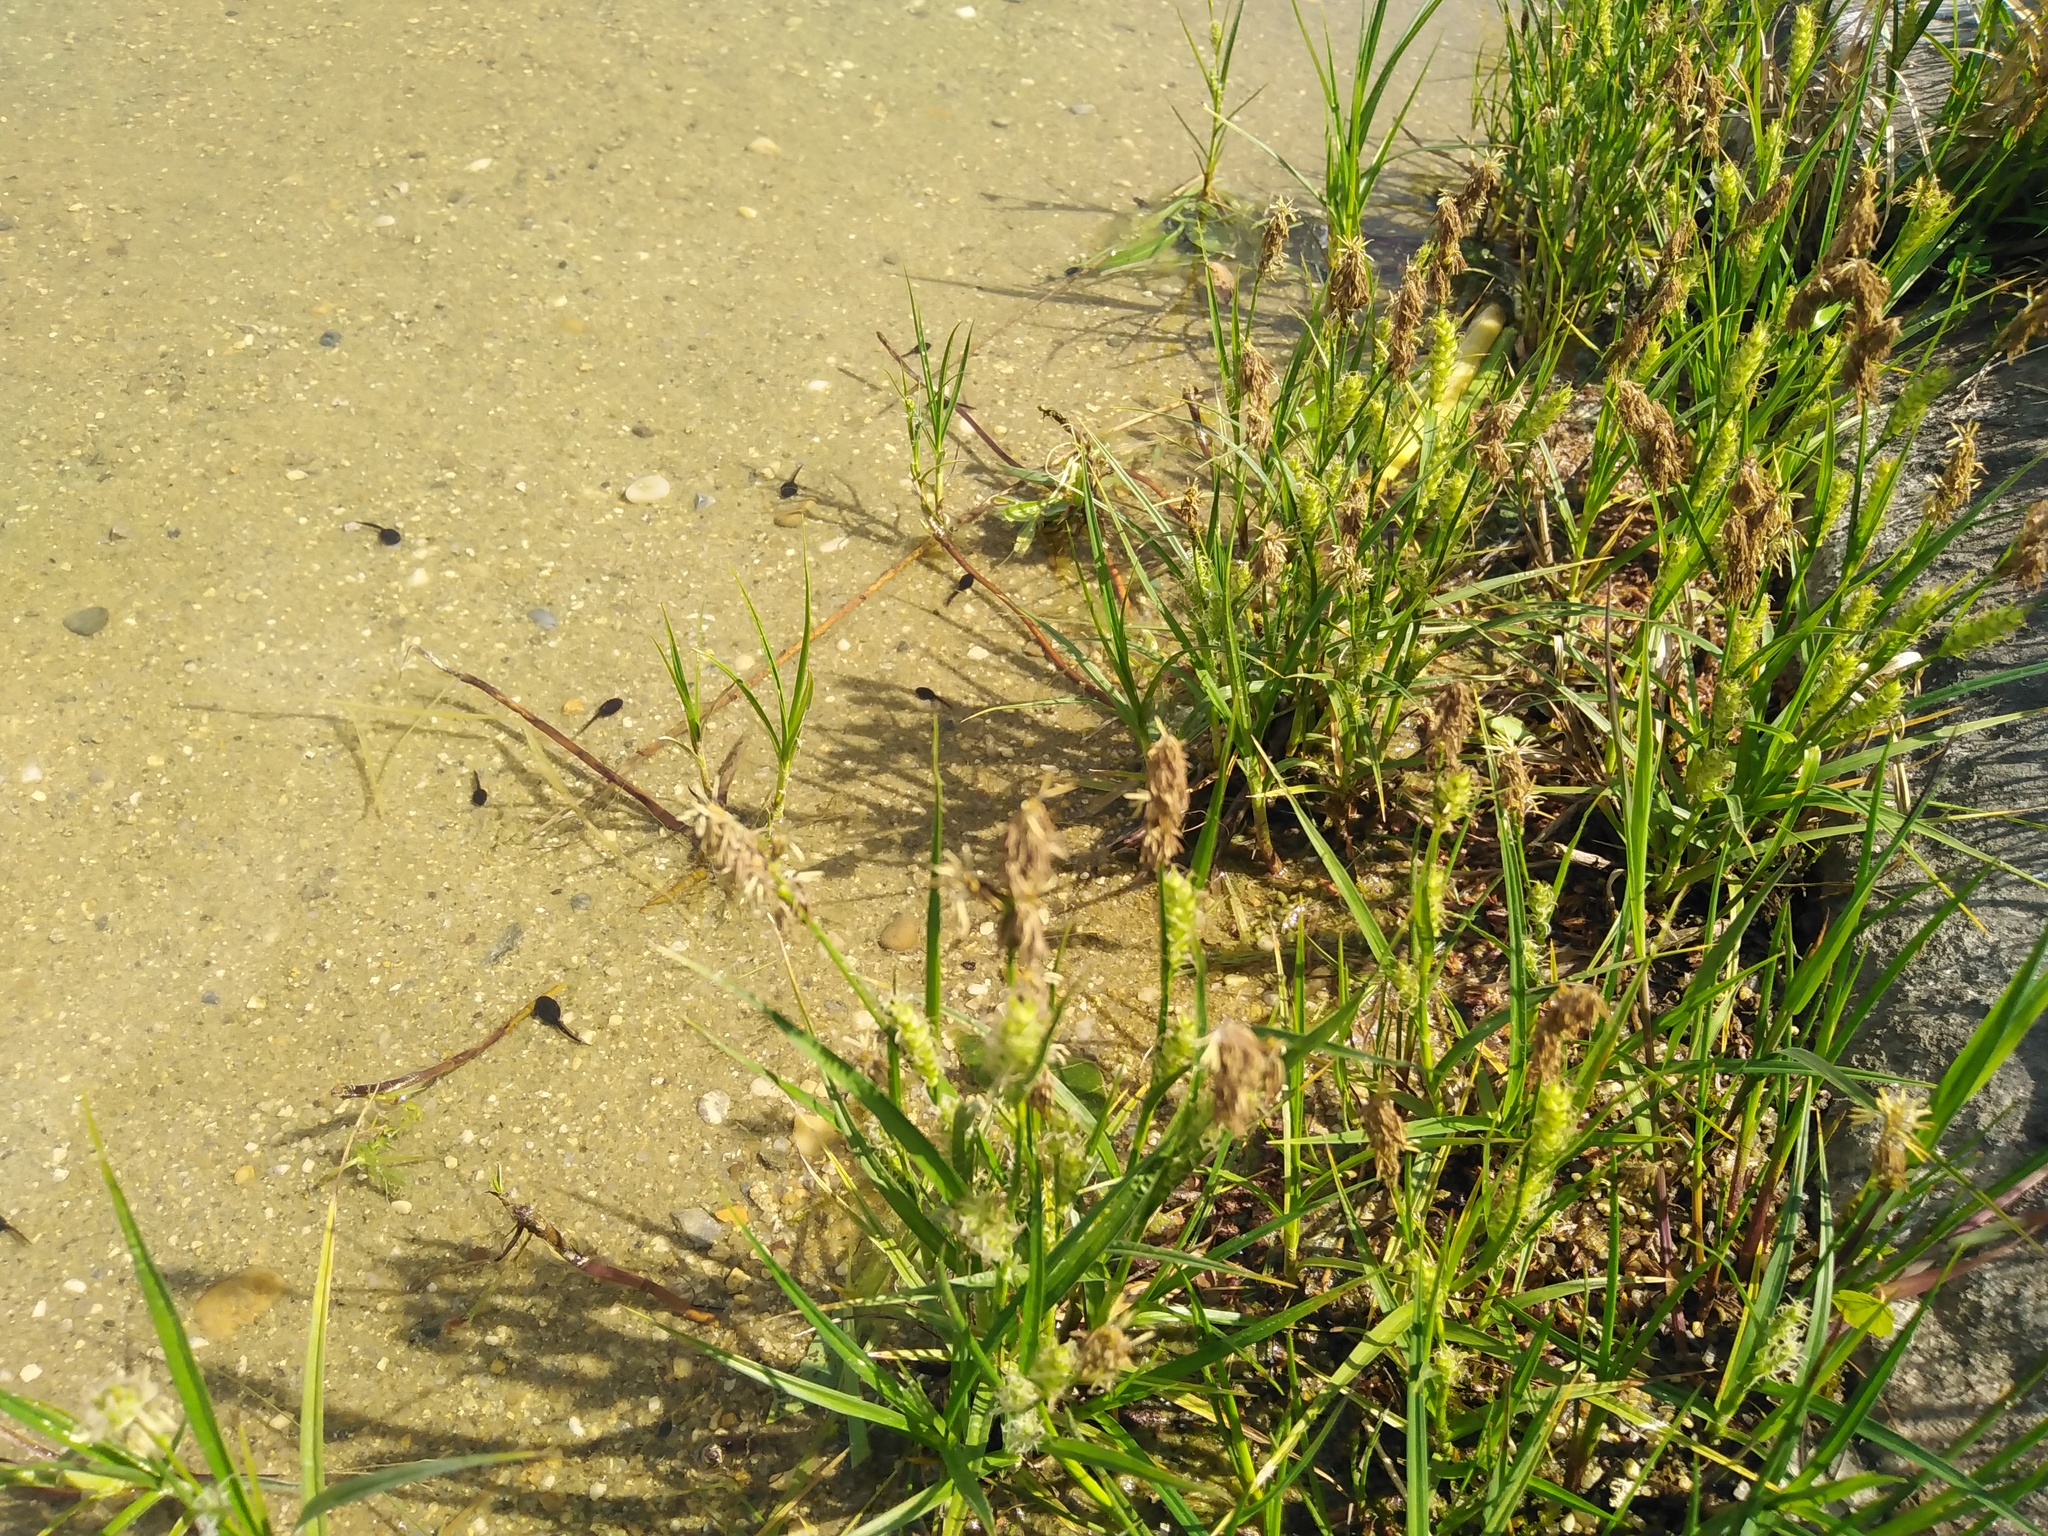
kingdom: Plantae
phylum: Tracheophyta
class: Liliopsida
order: Poales
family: Cyperaceae
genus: Carex
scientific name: Carex hirta
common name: Hairy sedge
